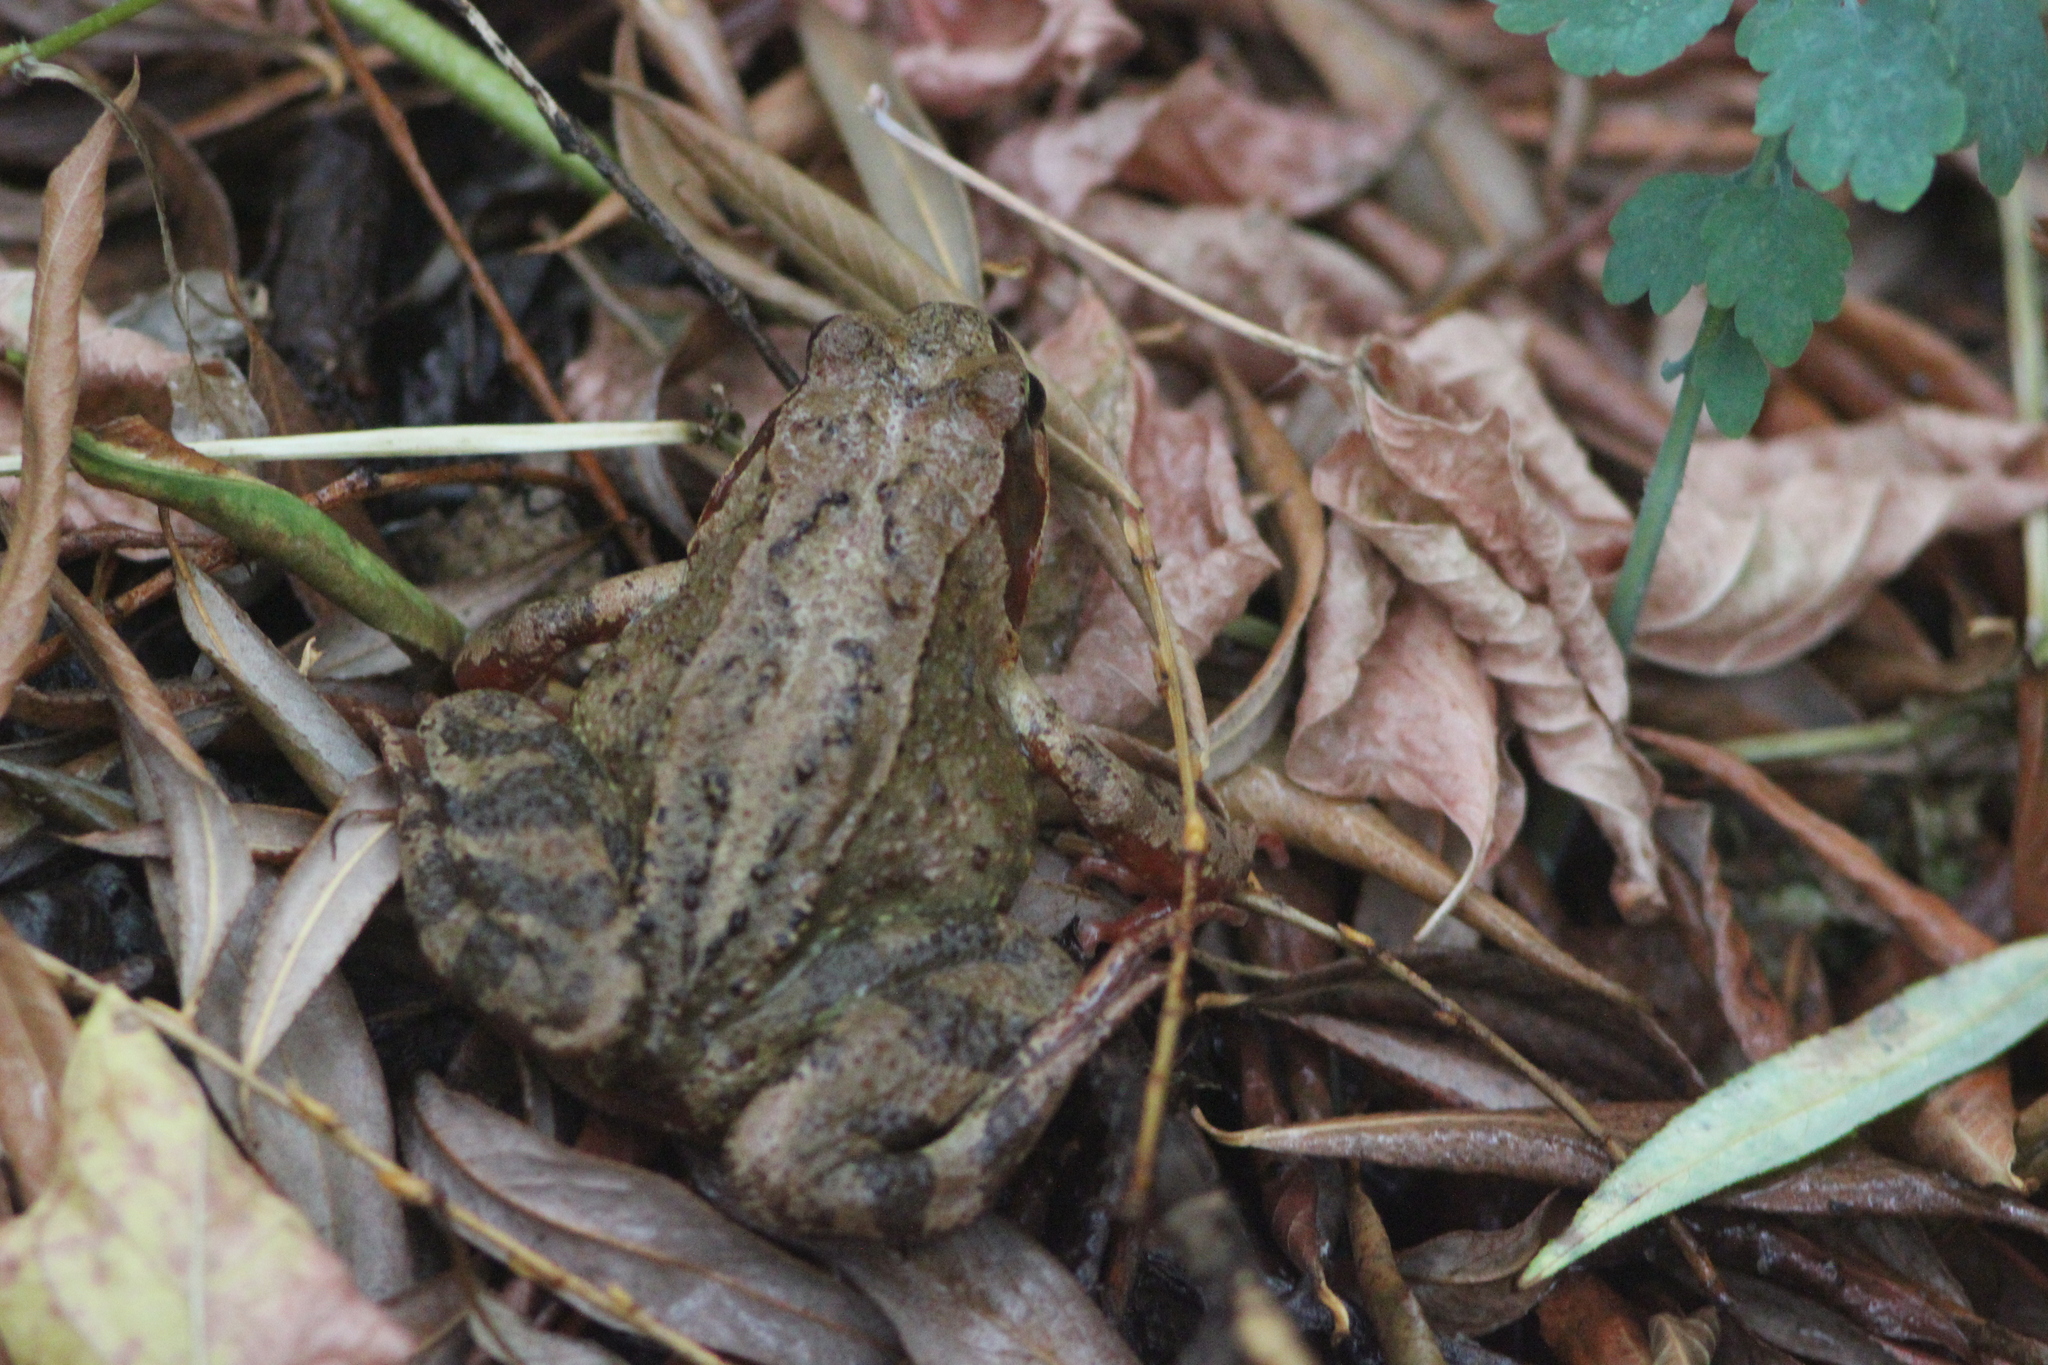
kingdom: Animalia
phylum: Chordata
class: Amphibia
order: Anura
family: Ranidae
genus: Rana
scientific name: Rana temporaria
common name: Common frog
